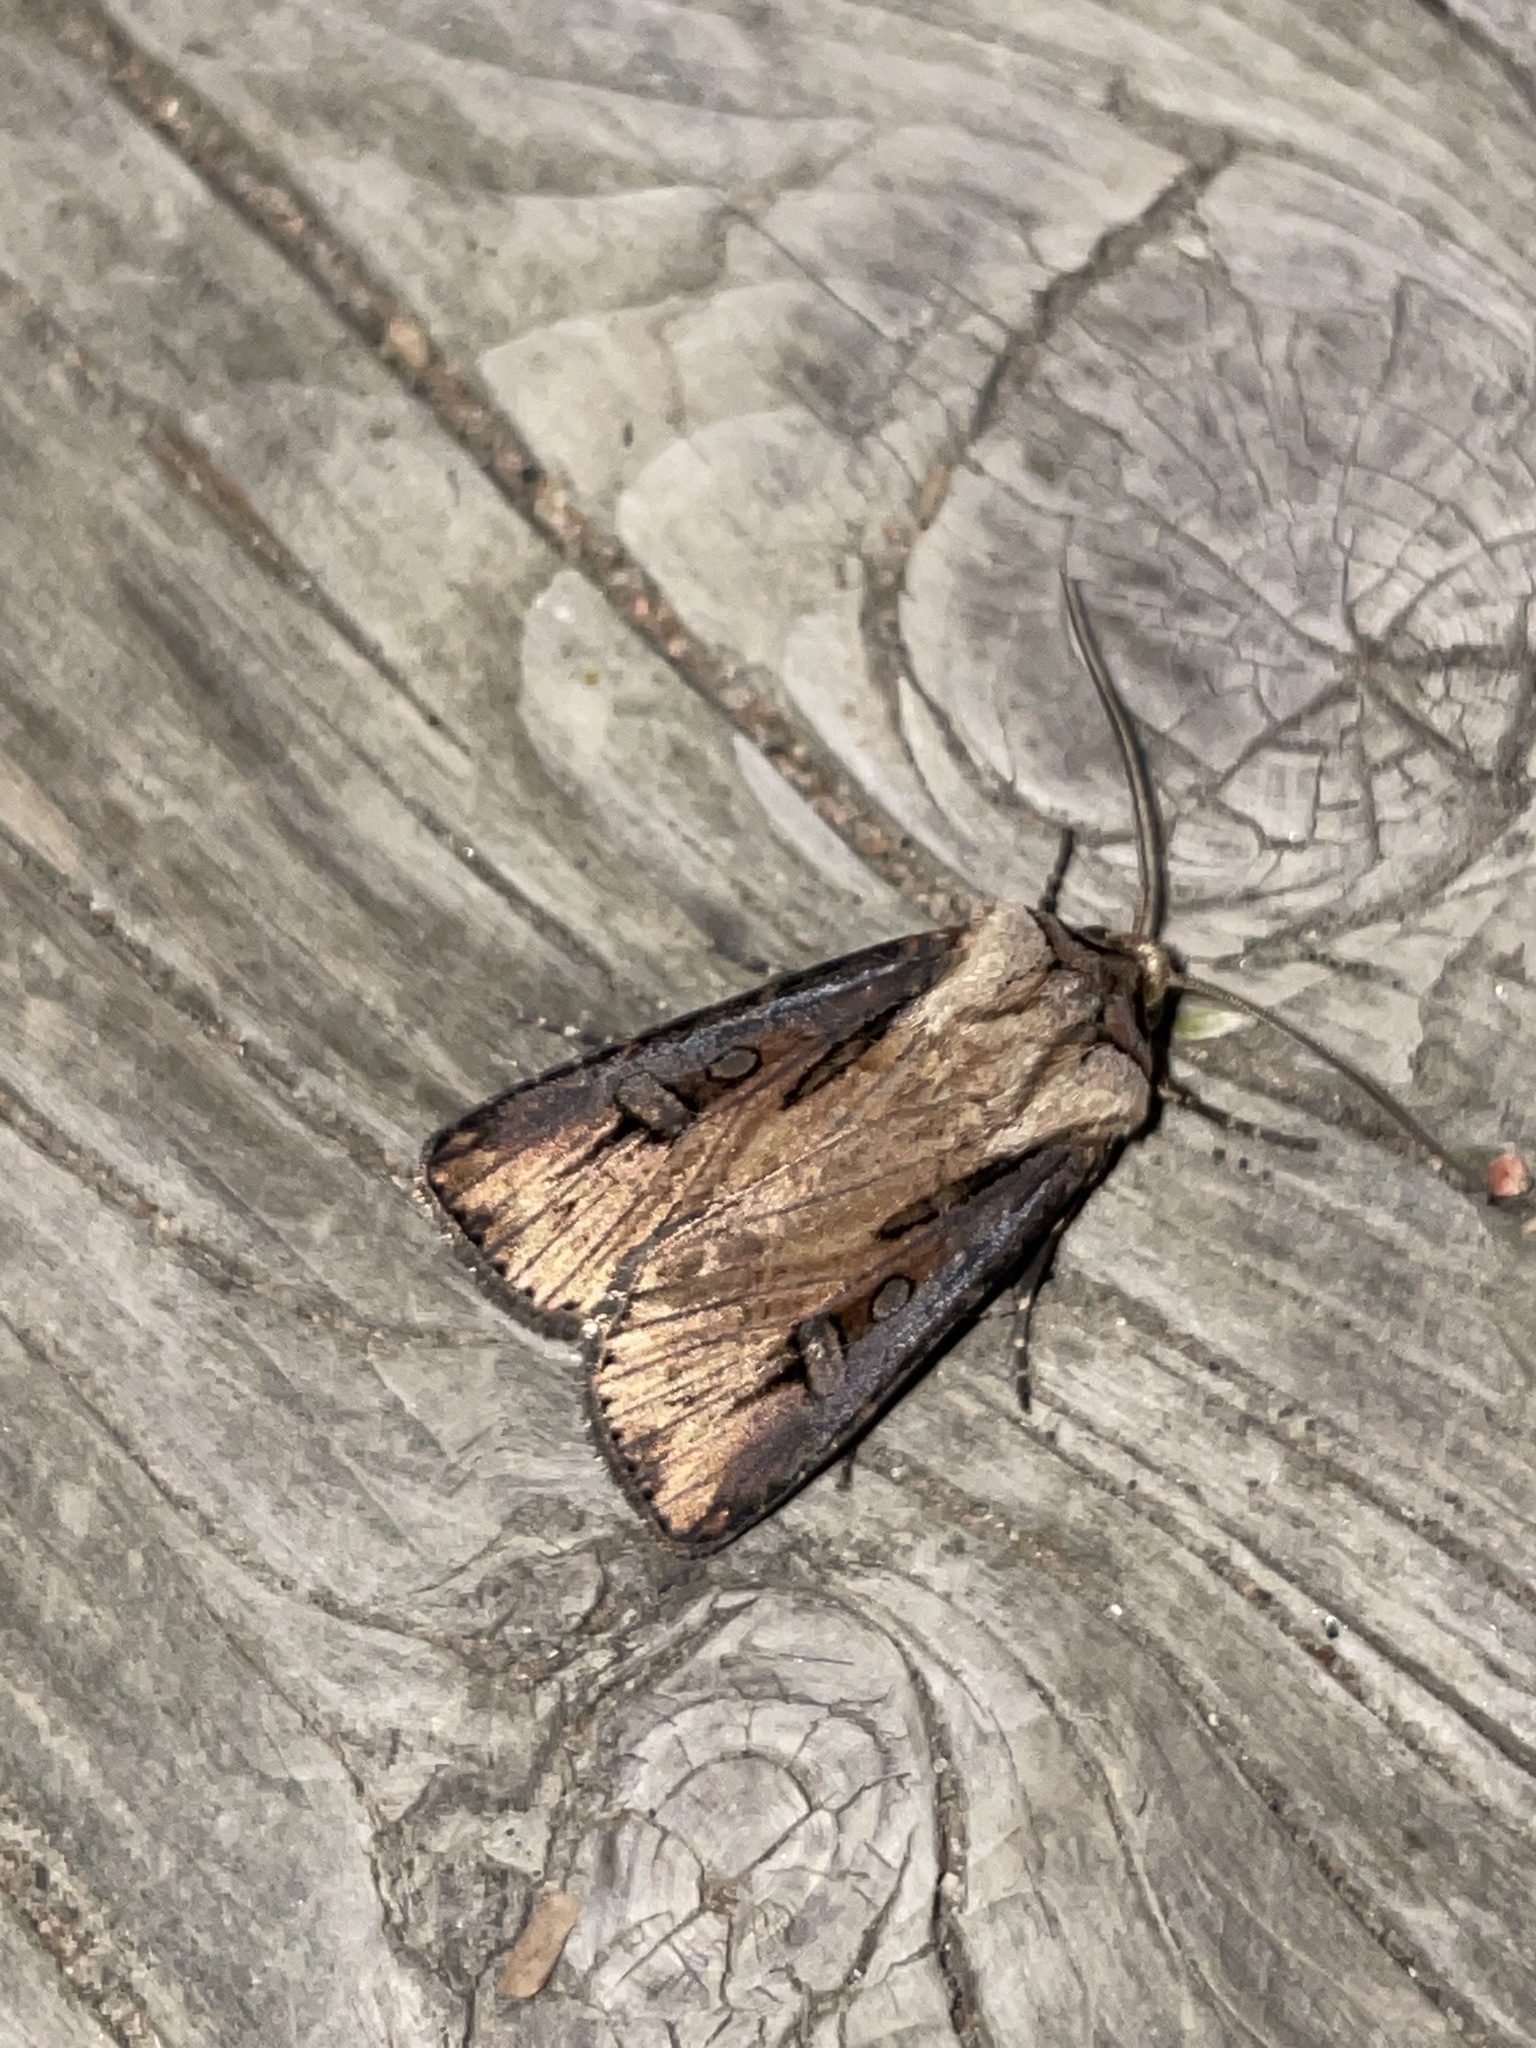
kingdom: Animalia
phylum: Arthropoda
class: Insecta
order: Lepidoptera
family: Noctuidae
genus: Agrotis
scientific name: Agrotis volubilis
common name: Voluble dart
